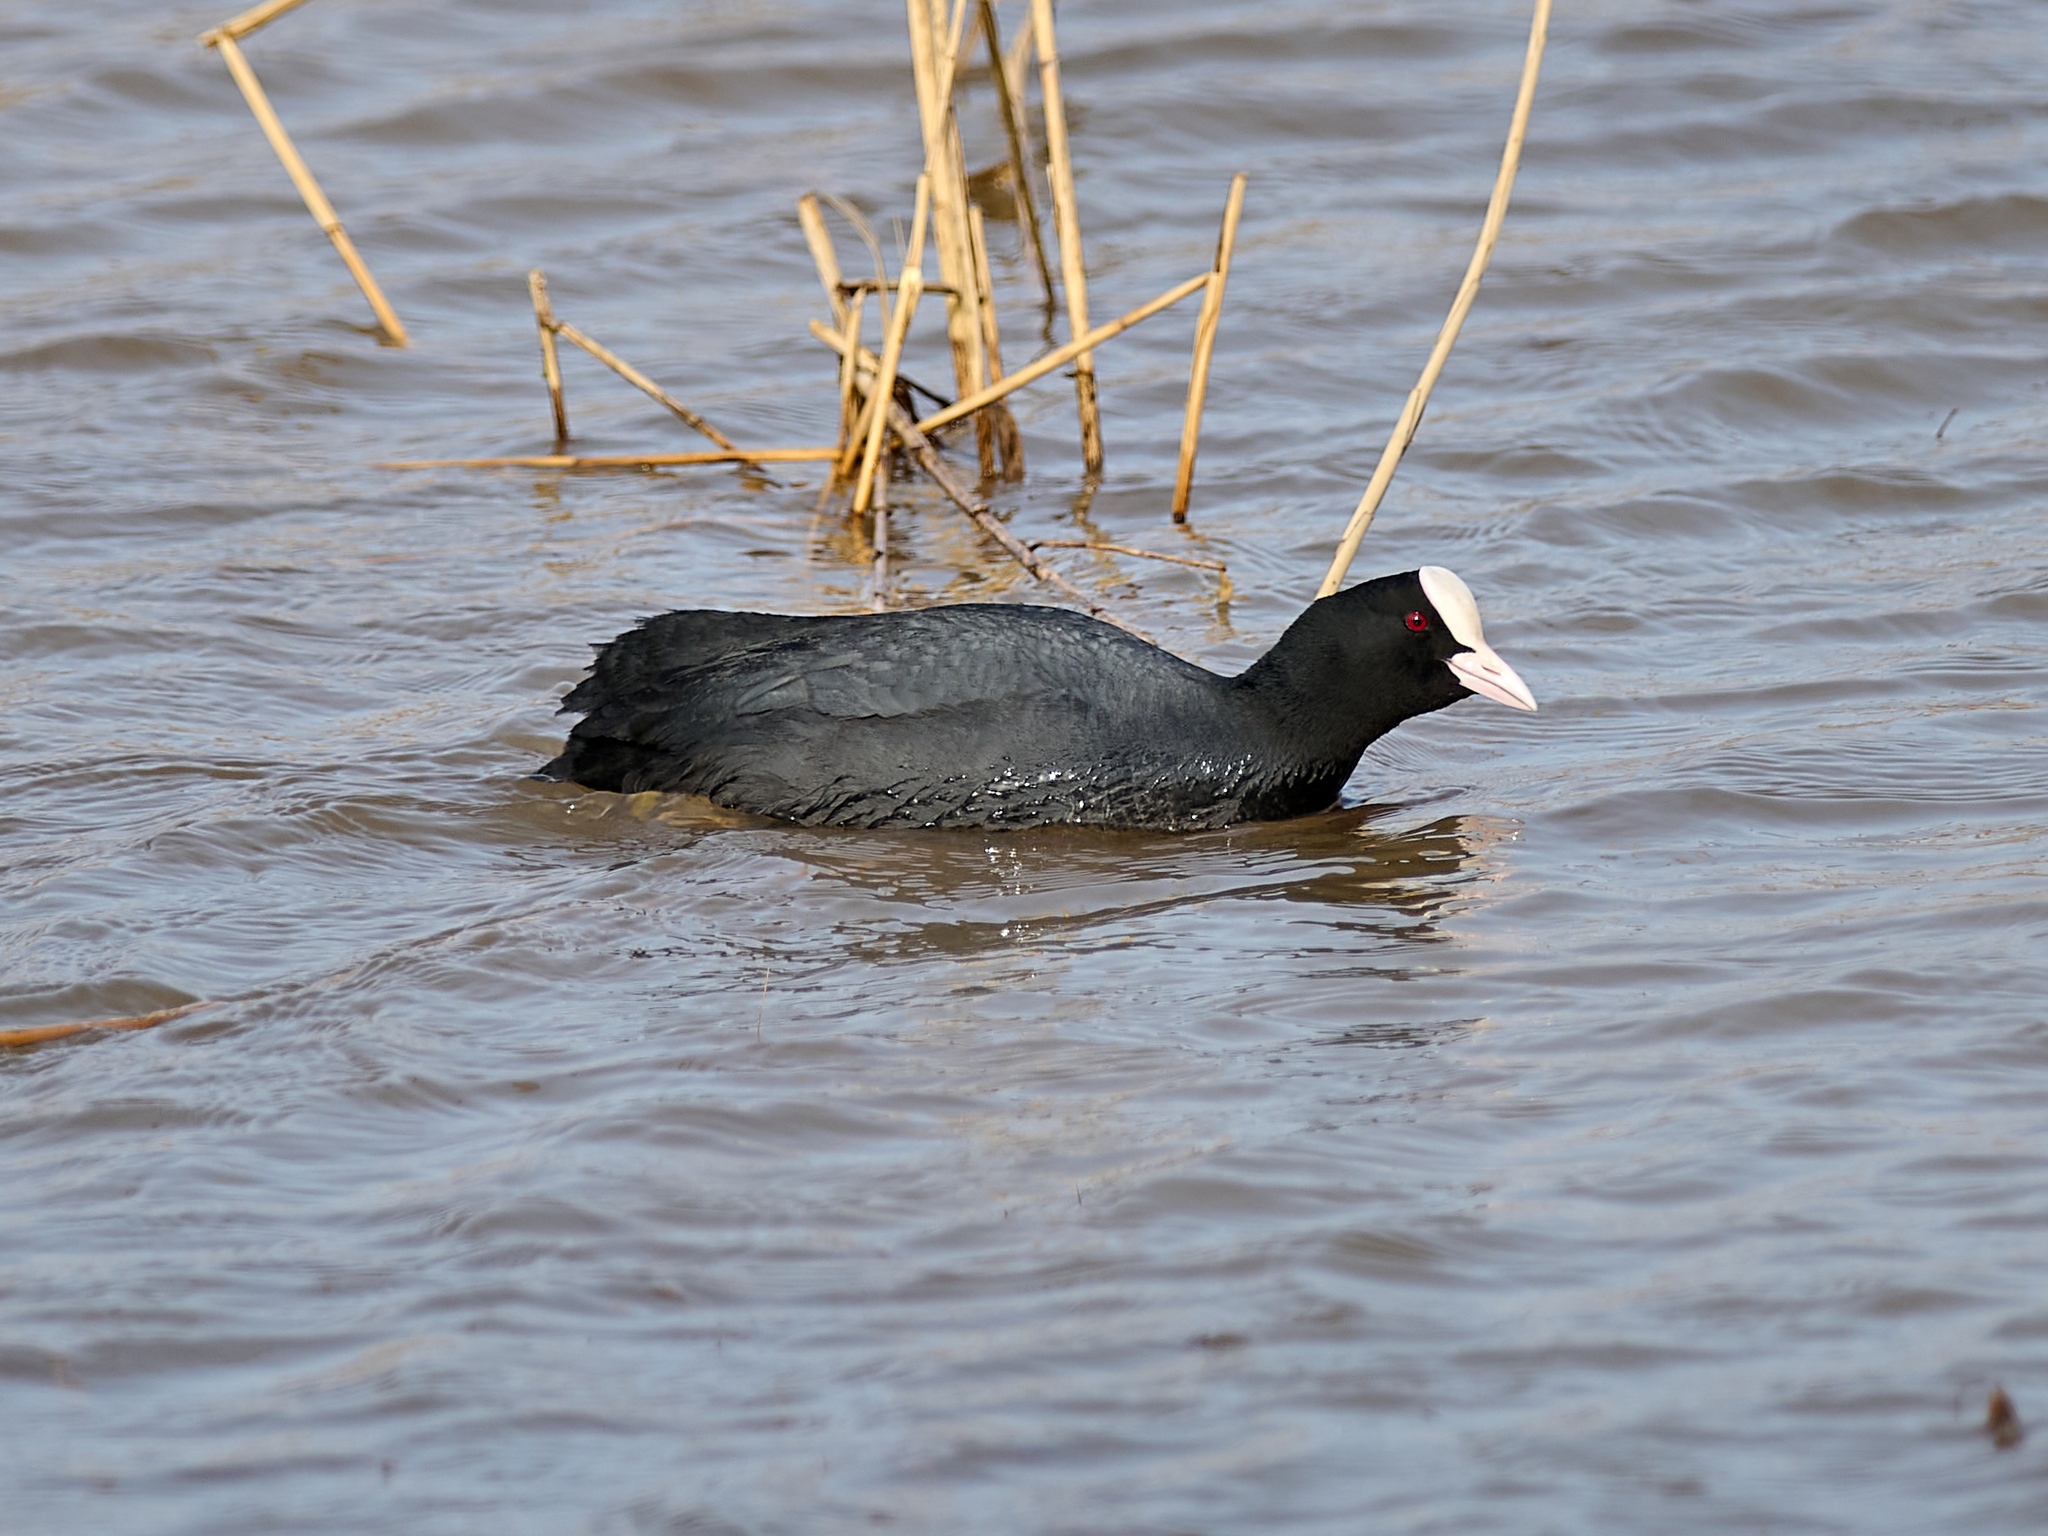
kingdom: Animalia
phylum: Chordata
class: Aves
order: Gruiformes
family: Rallidae
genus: Fulica
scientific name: Fulica atra
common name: Eurasian coot
